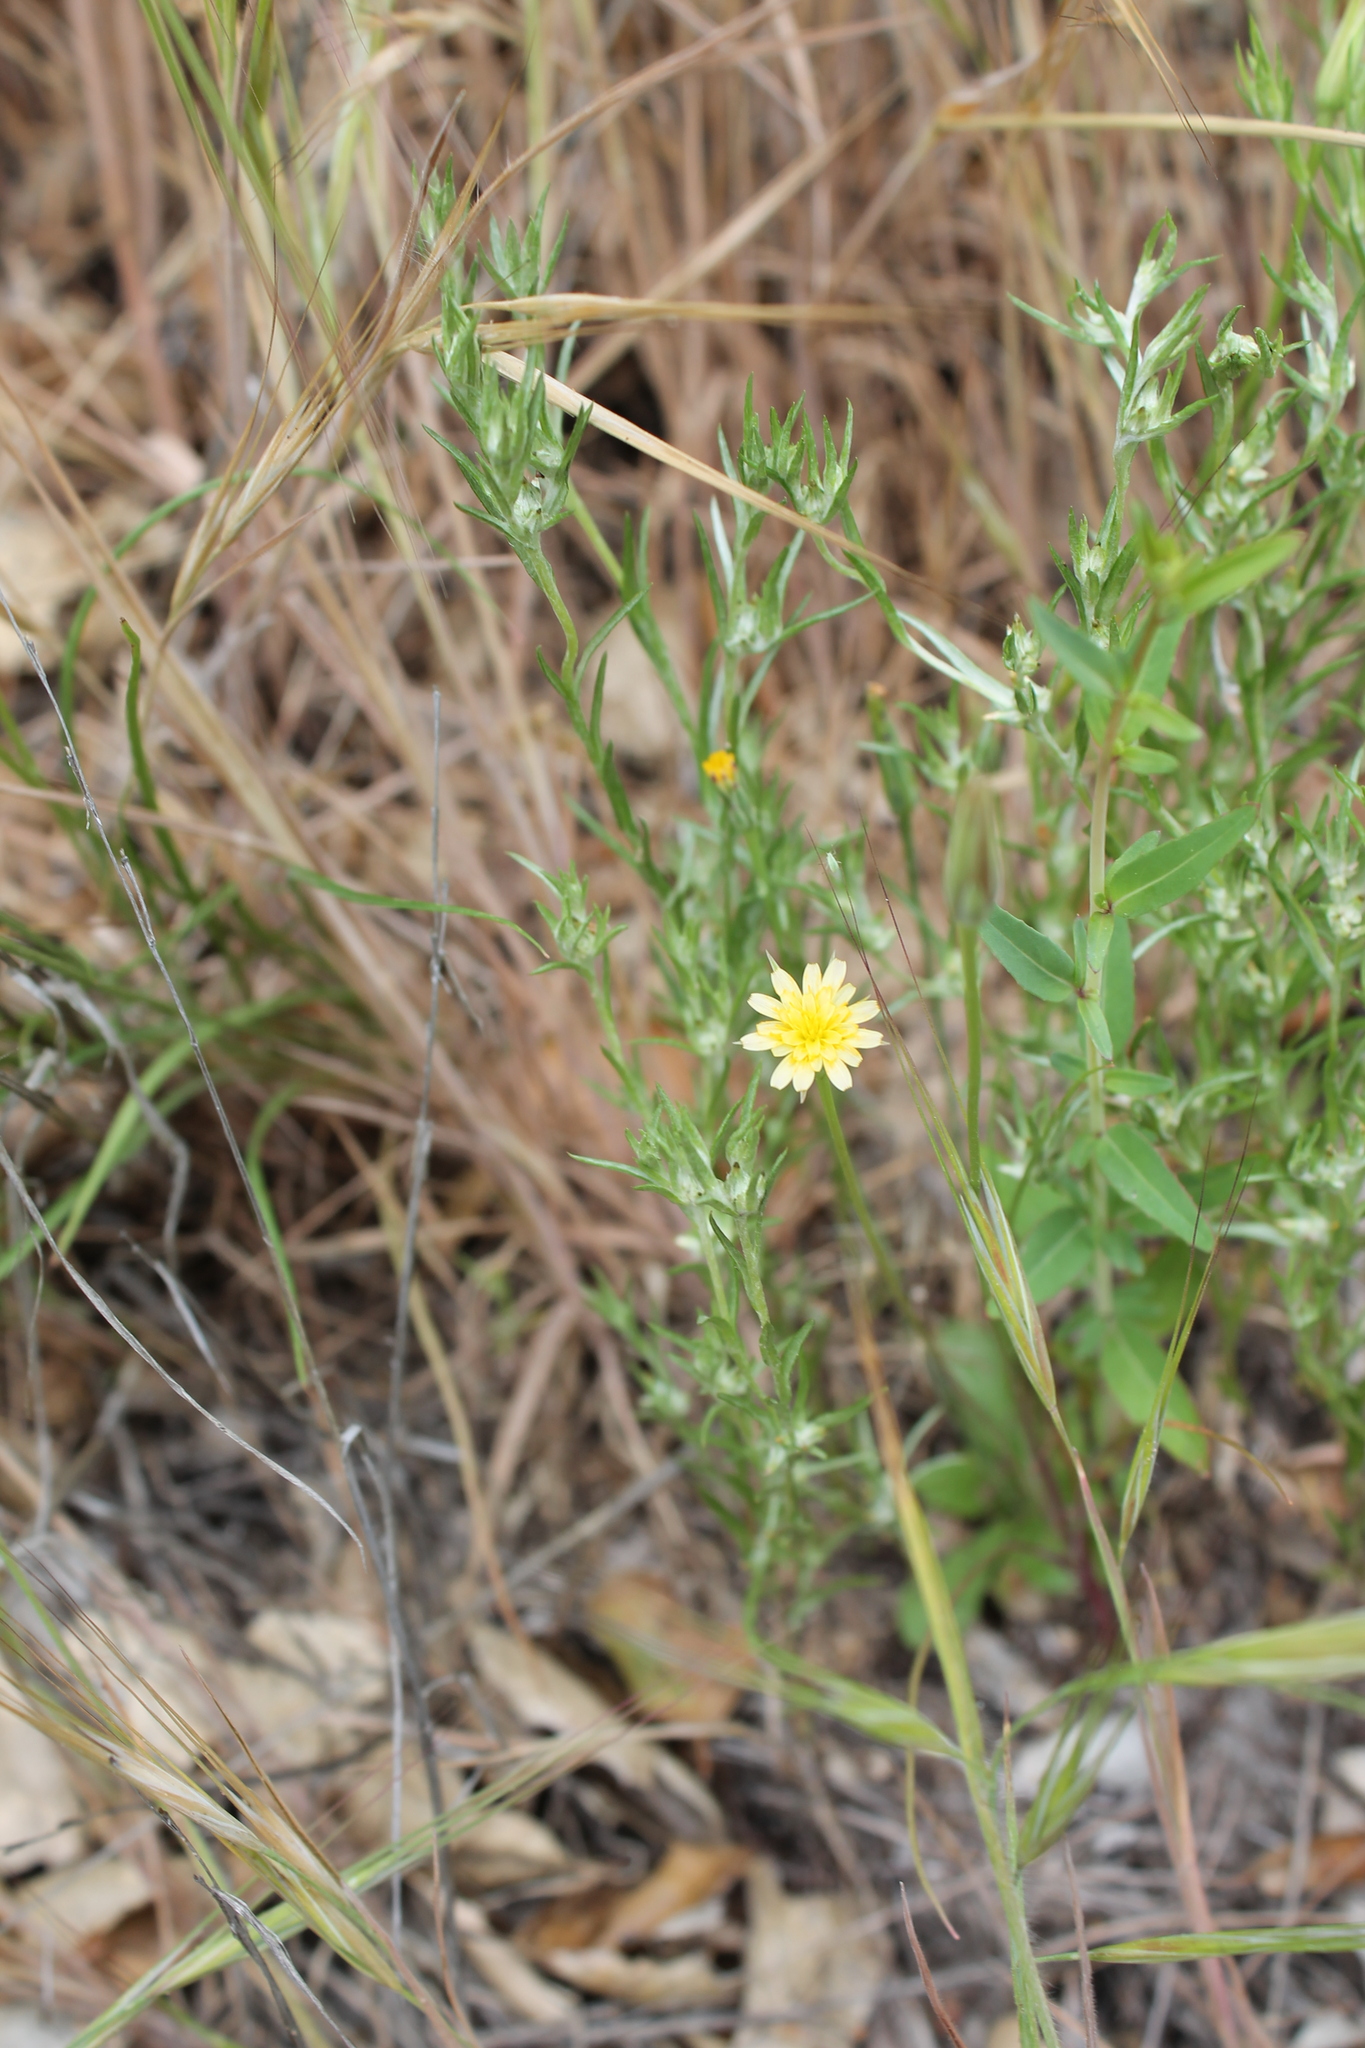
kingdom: Plantae
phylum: Tracheophyta
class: Magnoliopsida
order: Asterales
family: Asteraceae
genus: Microseris
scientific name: Microseris lindleyi
